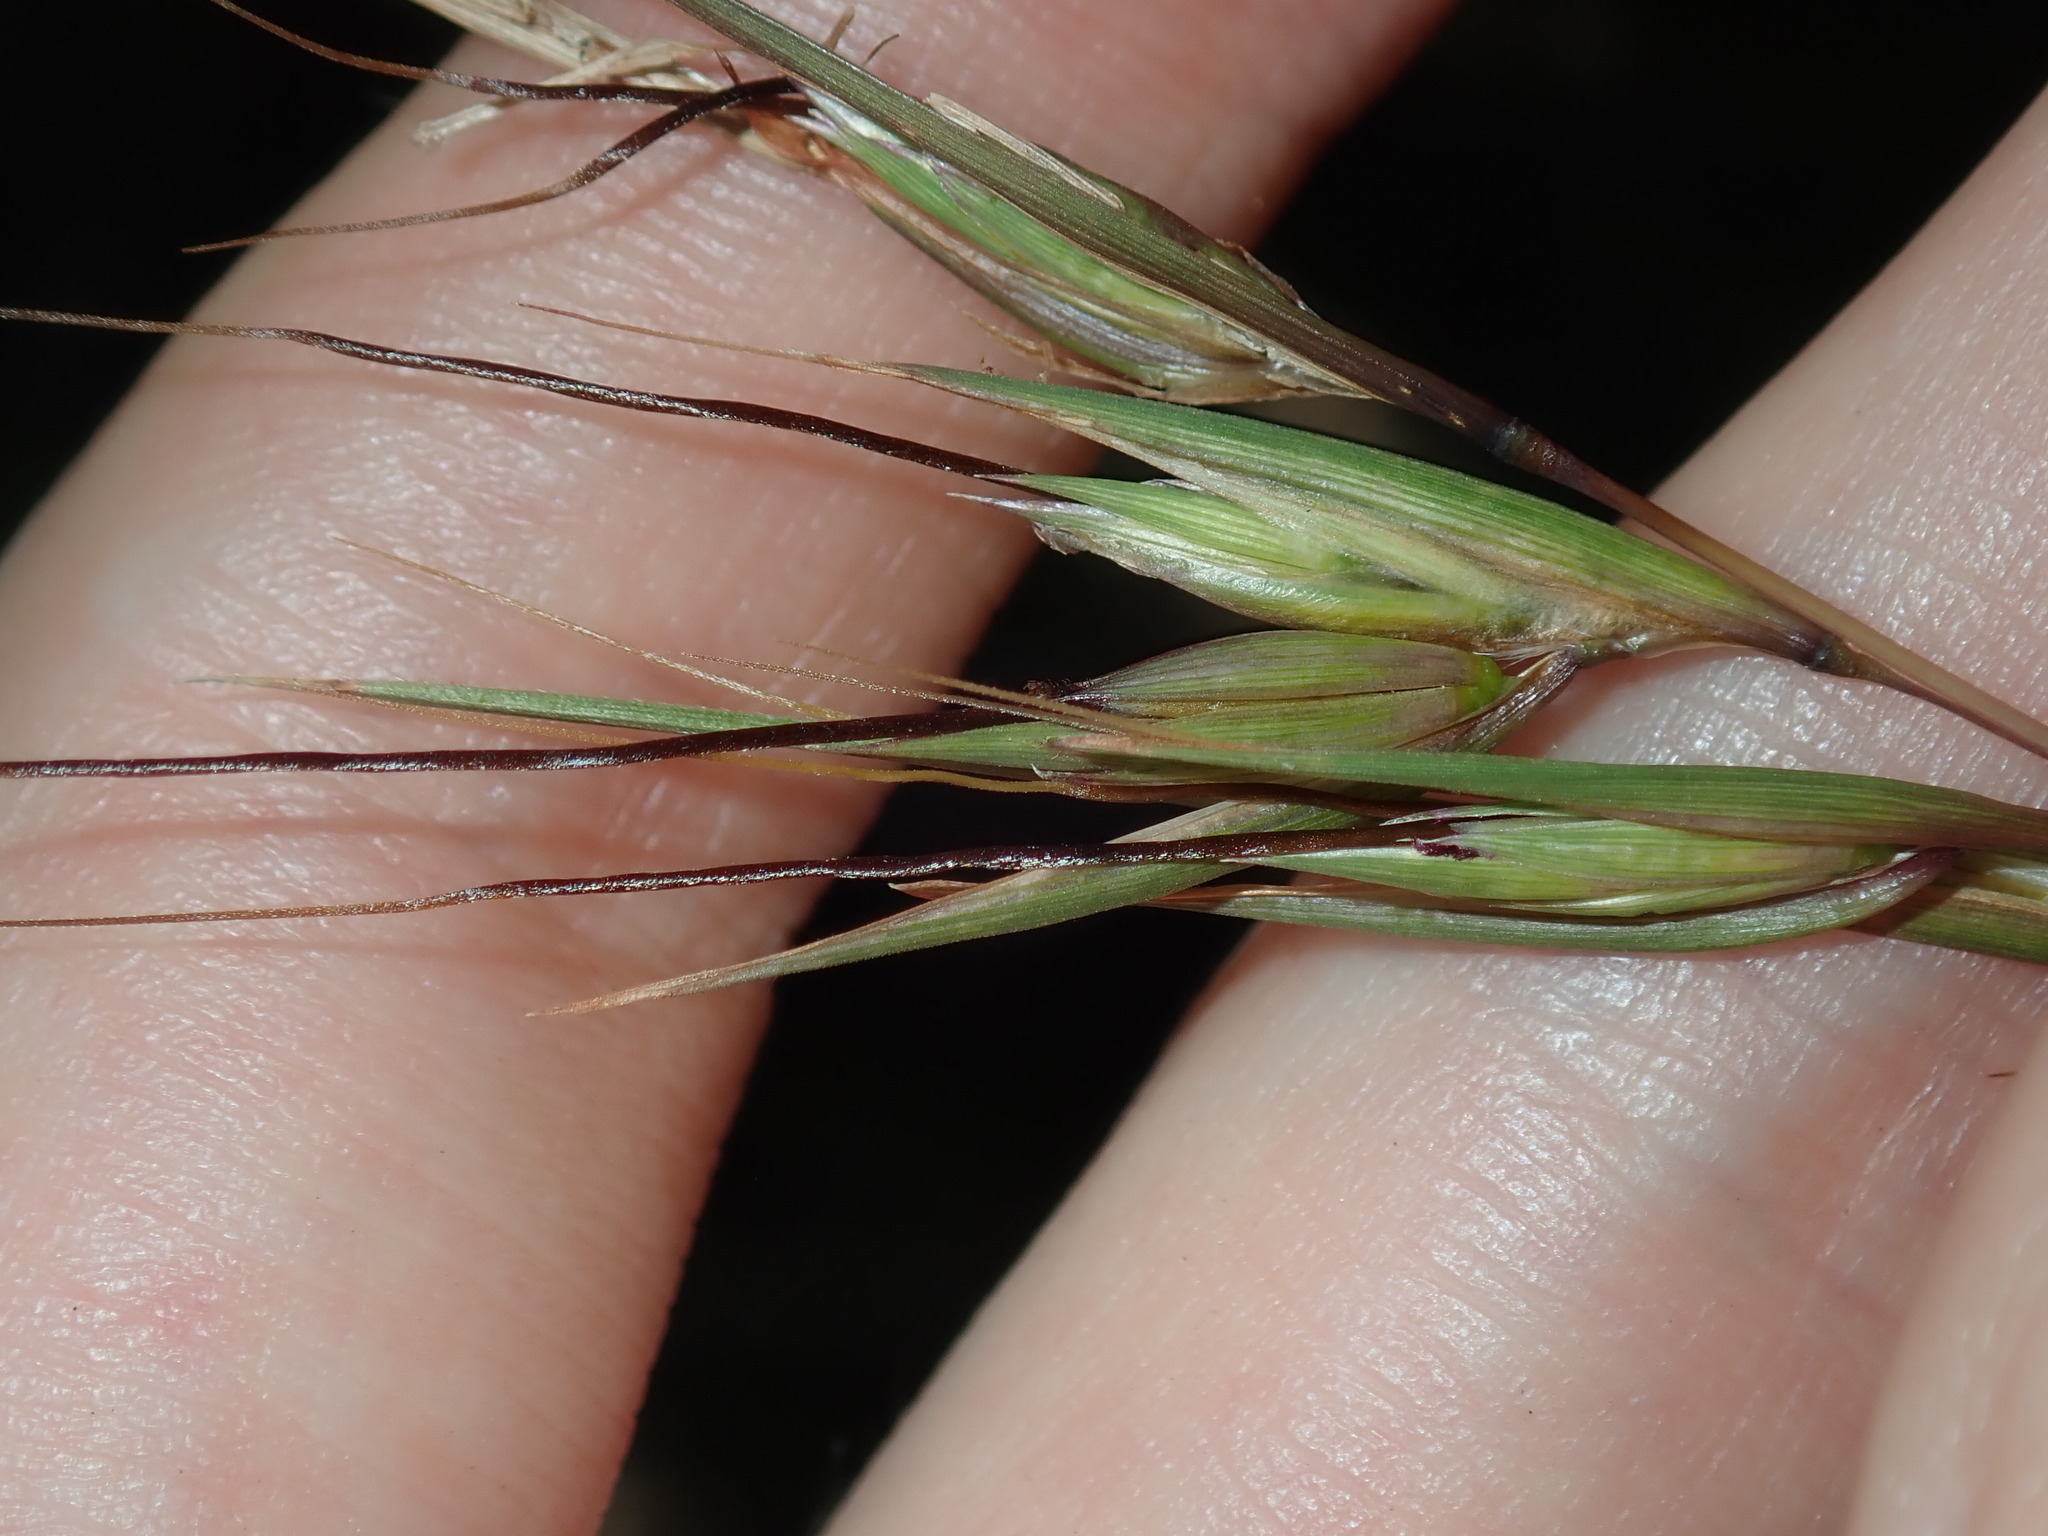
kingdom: Plantae
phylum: Tracheophyta
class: Liliopsida
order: Poales
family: Poaceae
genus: Themeda
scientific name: Themeda triandra
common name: Kangaroo grass
